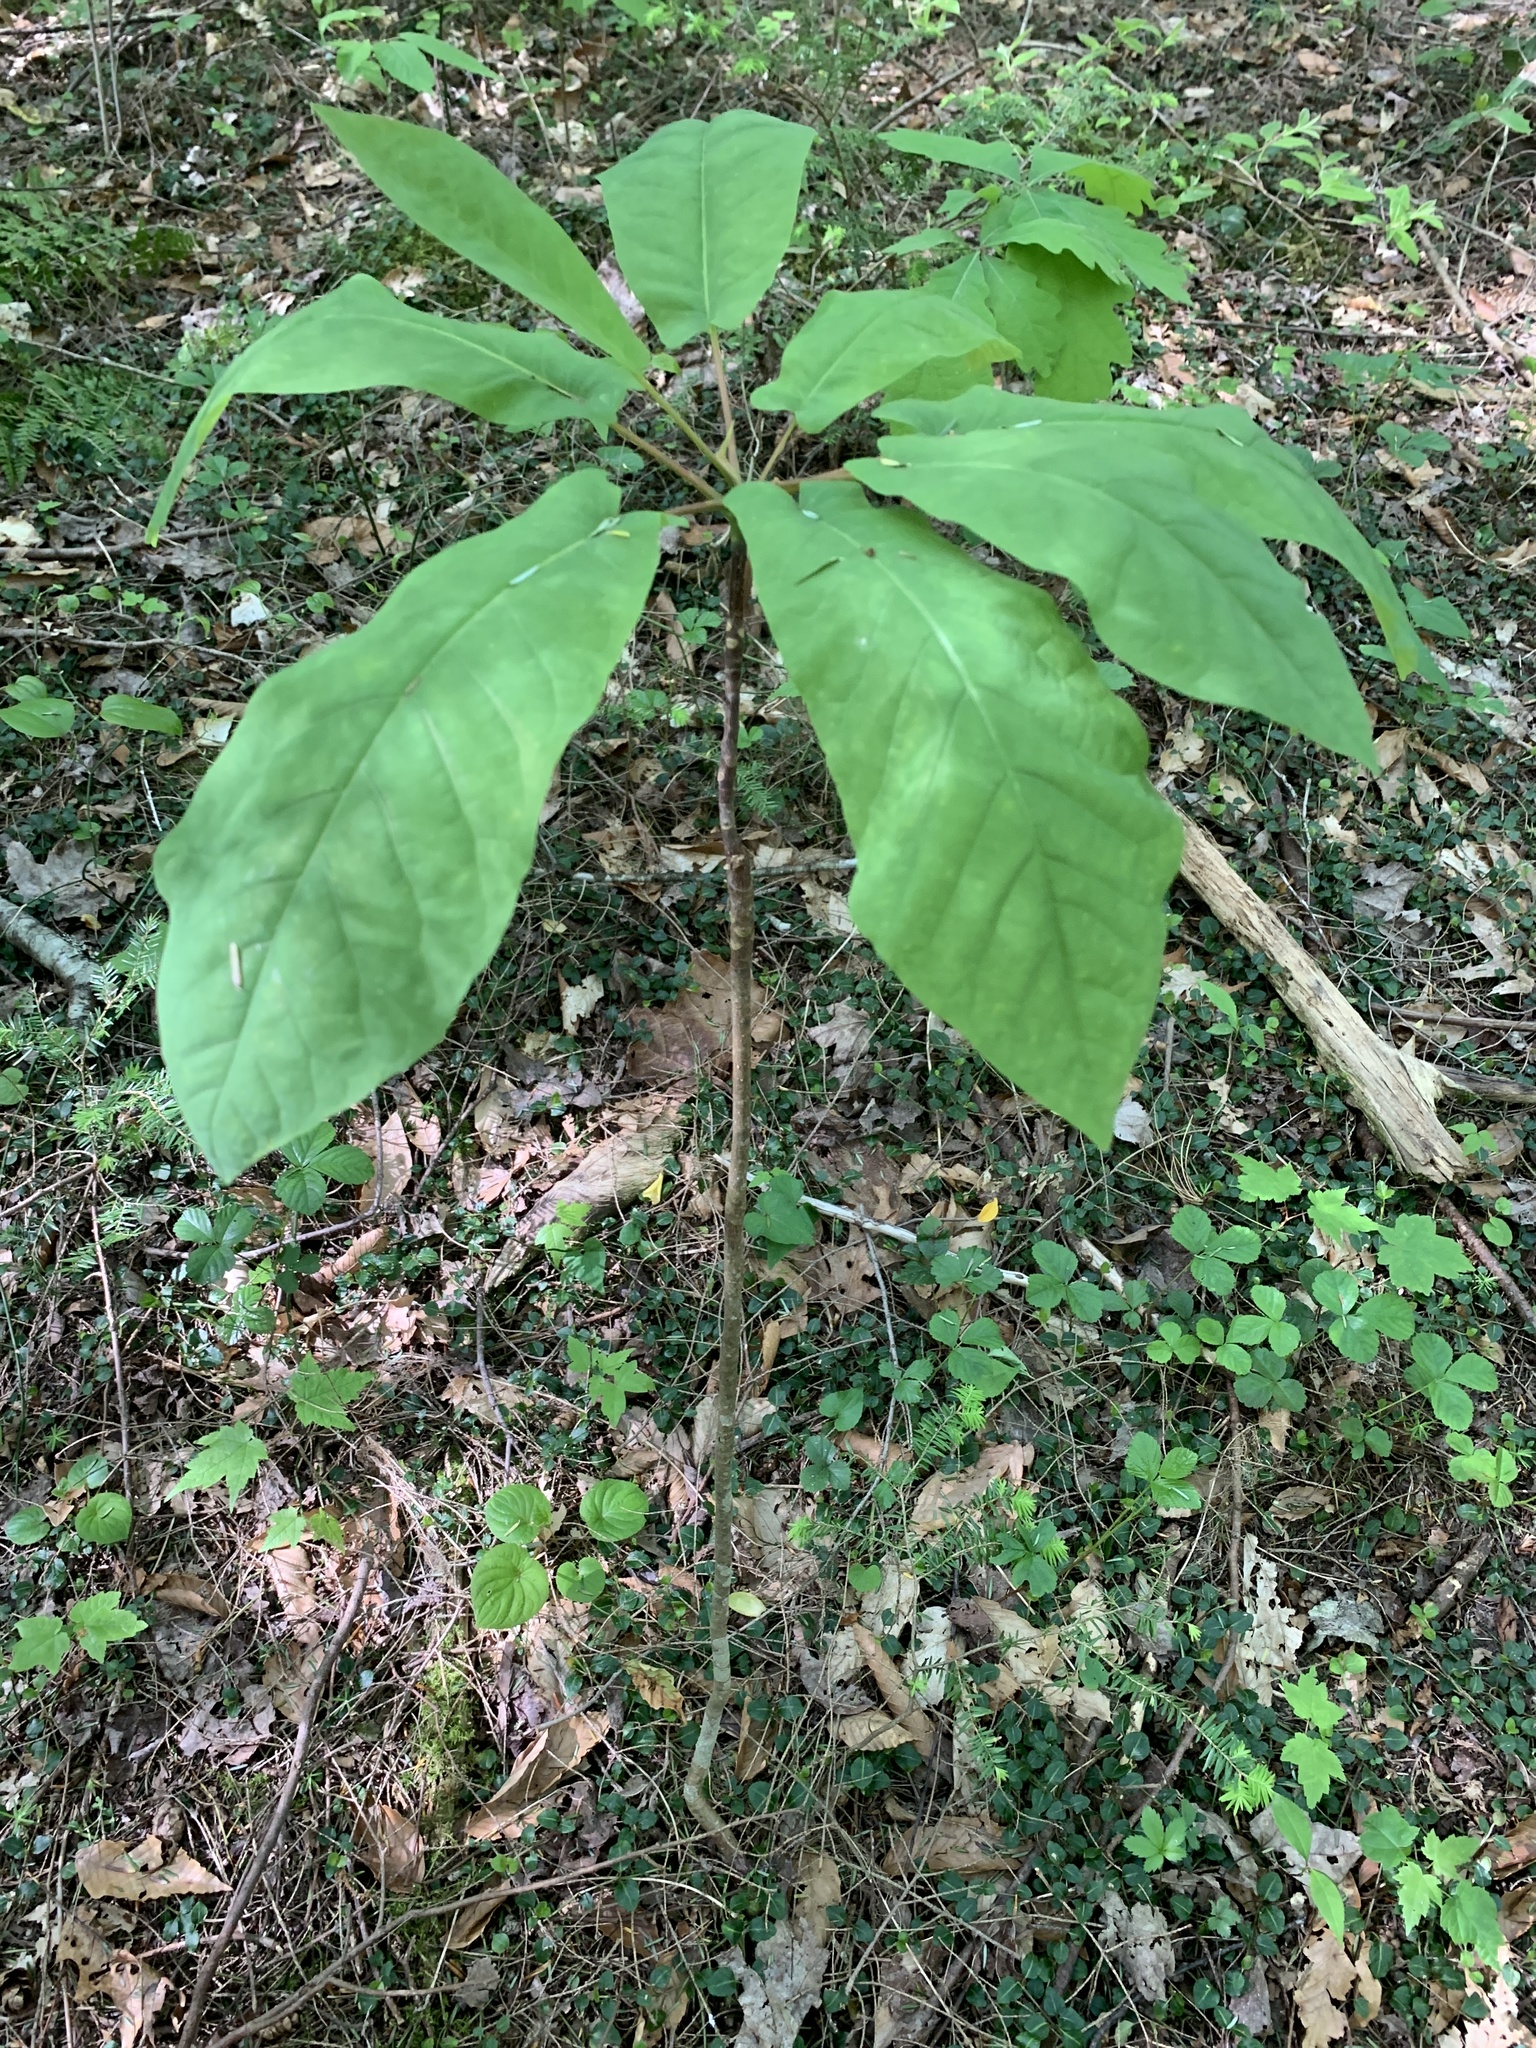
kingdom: Plantae
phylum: Tracheophyta
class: Magnoliopsida
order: Magnoliales
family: Magnoliaceae
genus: Magnolia
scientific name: Magnolia fraseri
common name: Fraser's magnolia
